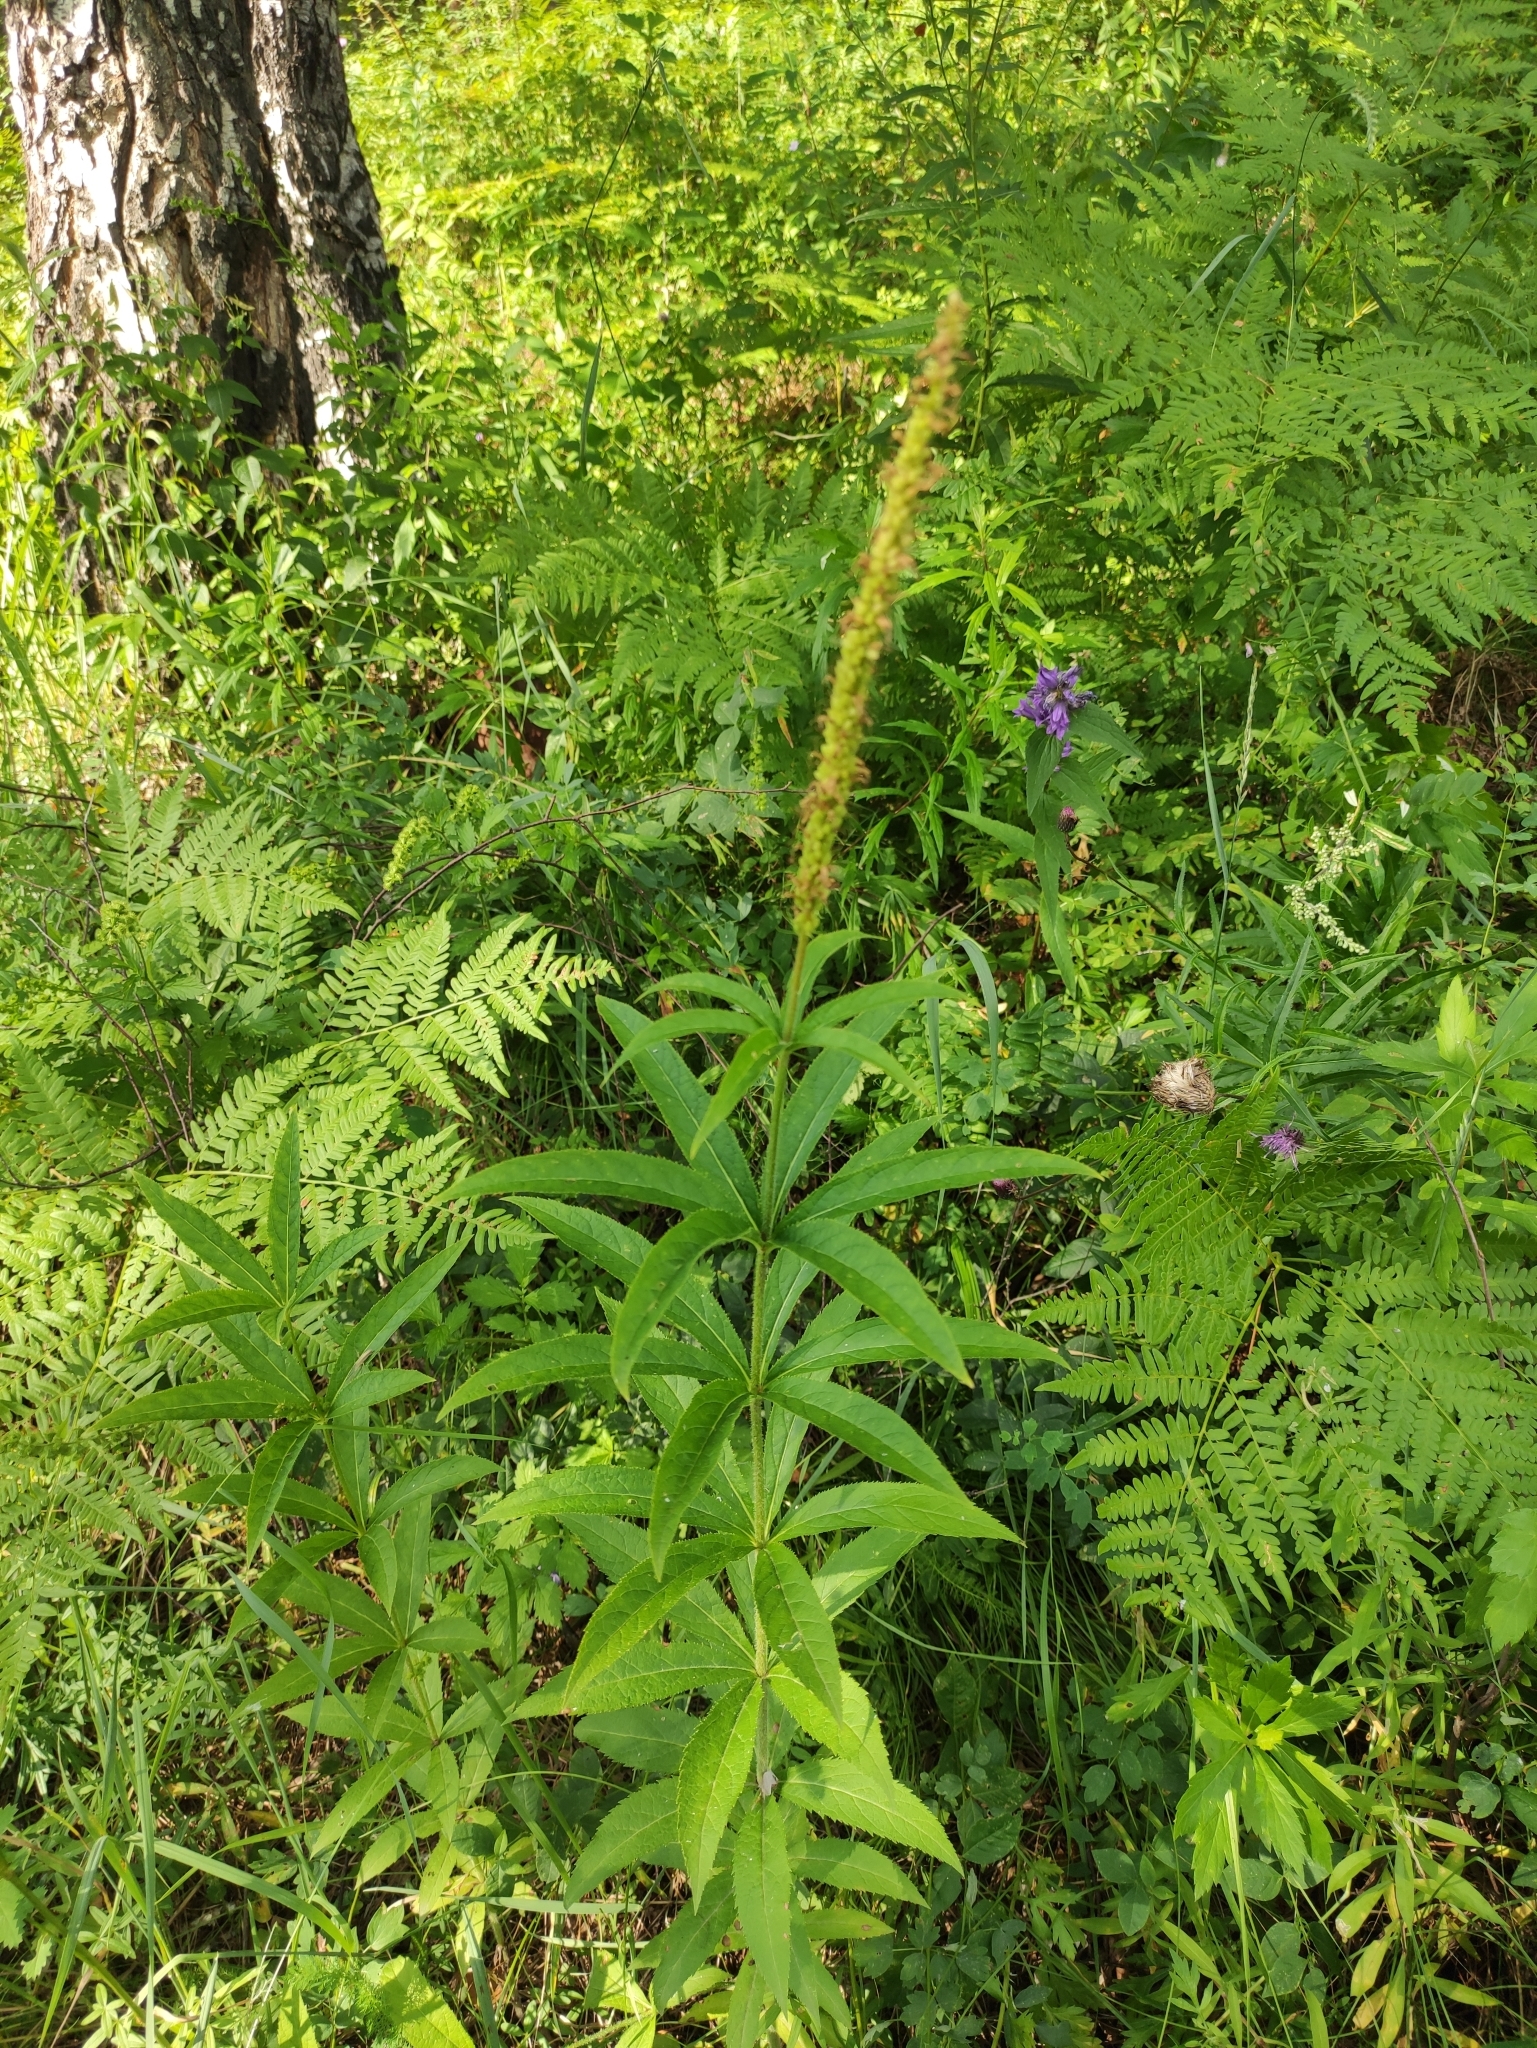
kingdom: Plantae
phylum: Tracheophyta
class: Magnoliopsida
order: Lamiales
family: Plantaginaceae
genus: Veronicastrum
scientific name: Veronicastrum sibiricum
